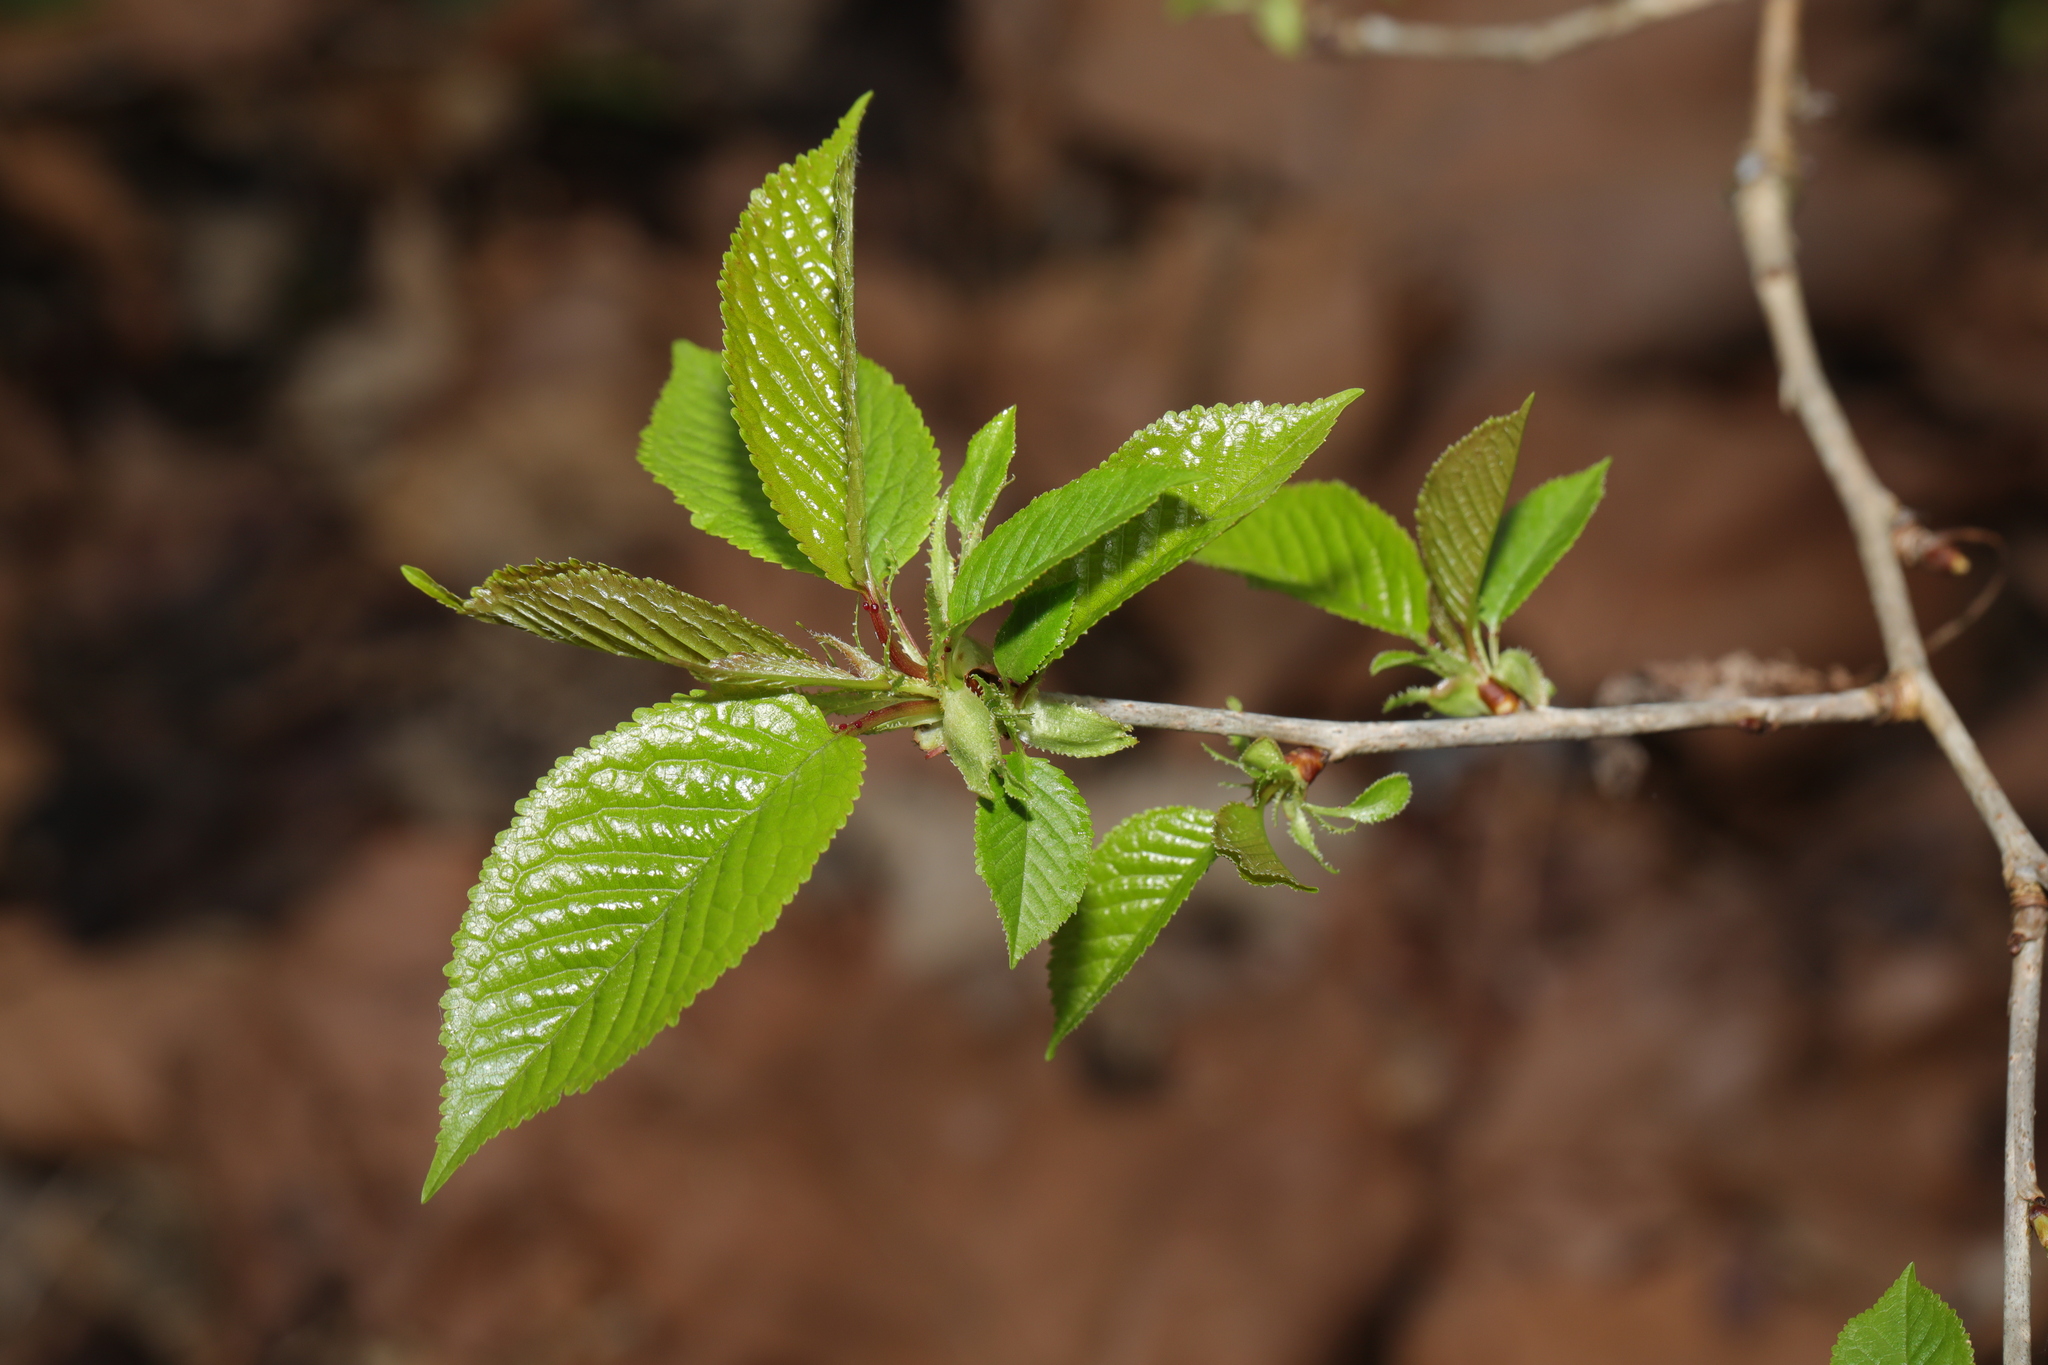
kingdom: Plantae
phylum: Tracheophyta
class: Magnoliopsida
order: Rosales
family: Rosaceae
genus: Prunus
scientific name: Prunus avium
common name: Sweet cherry
